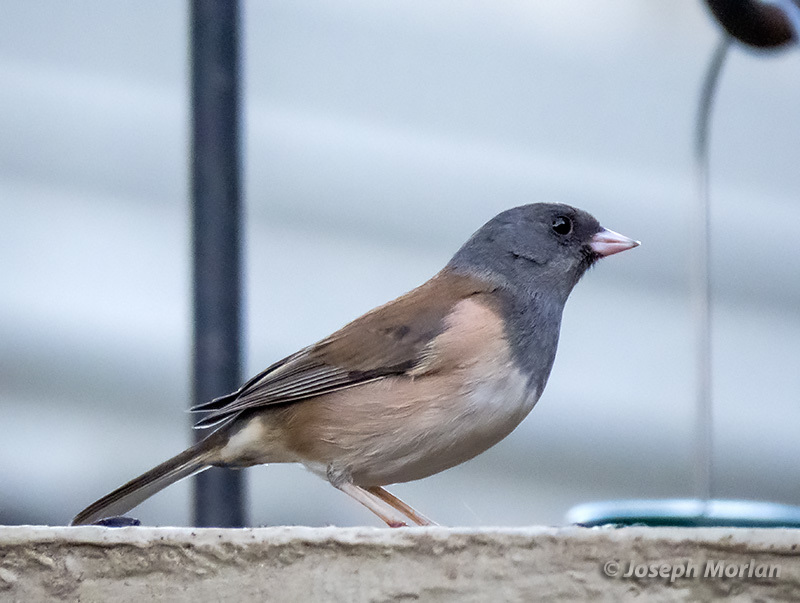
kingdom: Animalia
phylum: Chordata
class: Aves
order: Passeriformes
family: Passerellidae
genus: Junco
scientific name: Junco hyemalis
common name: Dark-eyed junco
